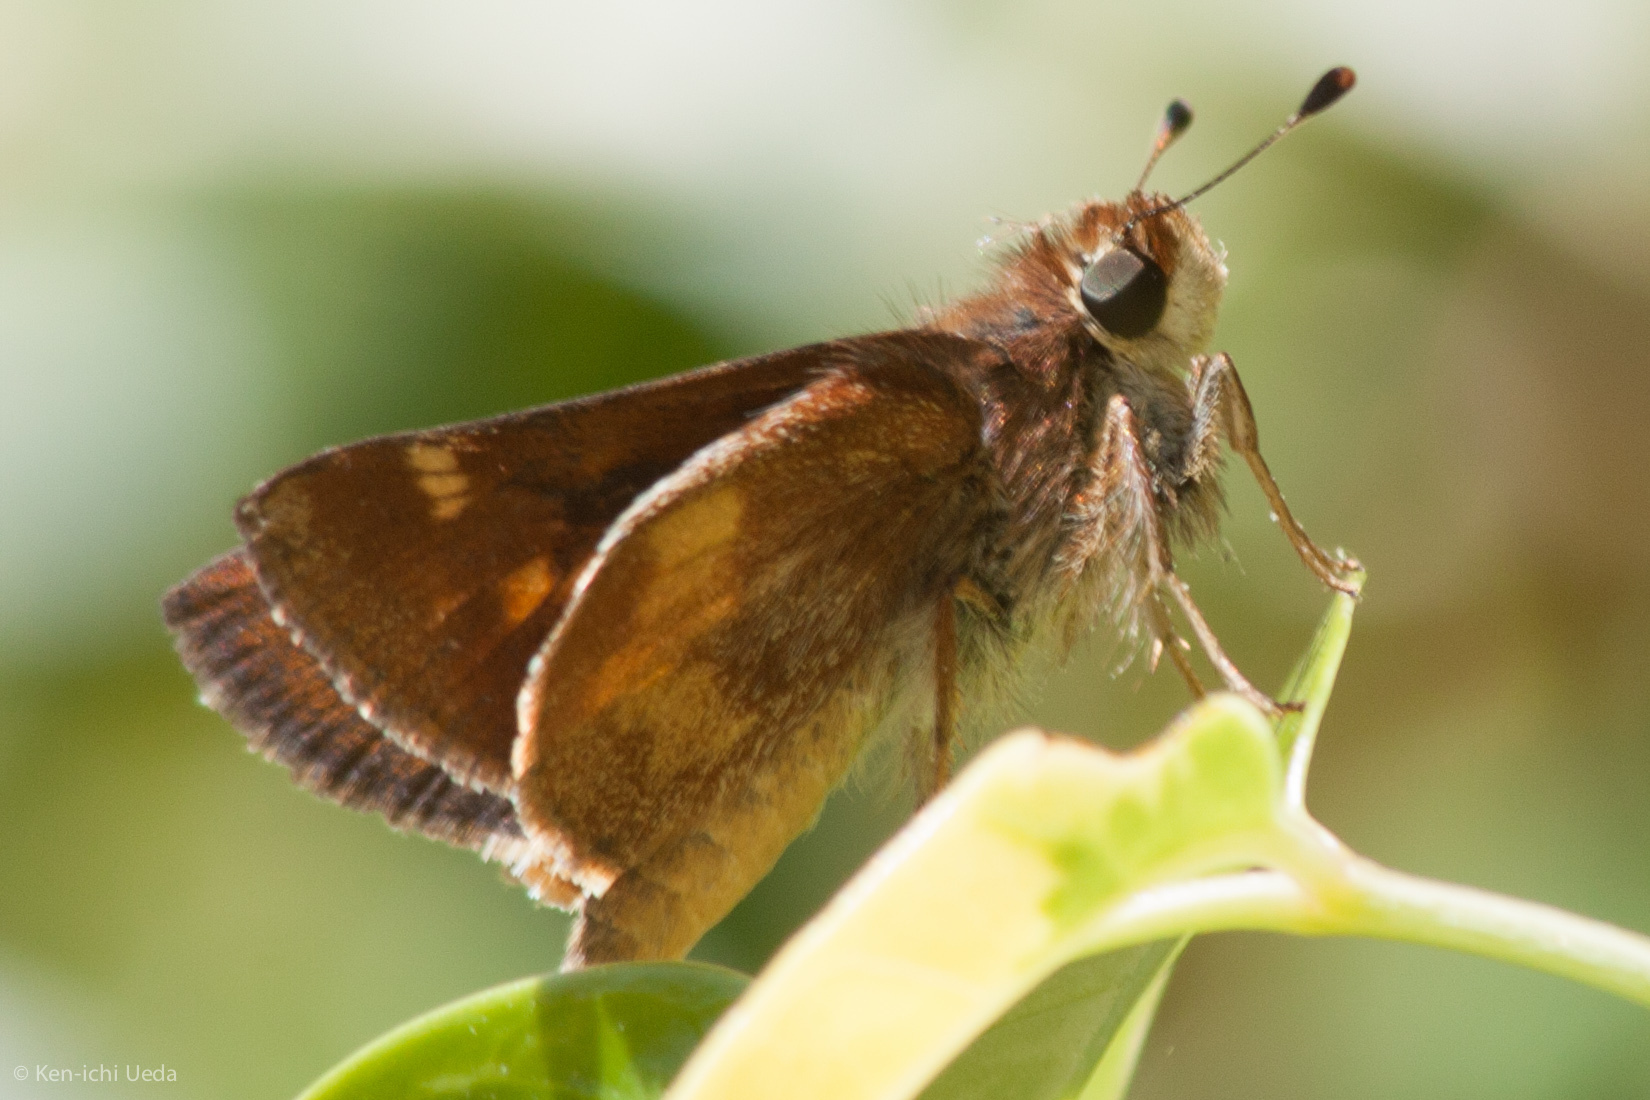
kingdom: Animalia
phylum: Arthropoda
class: Insecta
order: Lepidoptera
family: Hesperiidae
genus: Lon
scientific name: Lon melane
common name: Umber skipper
